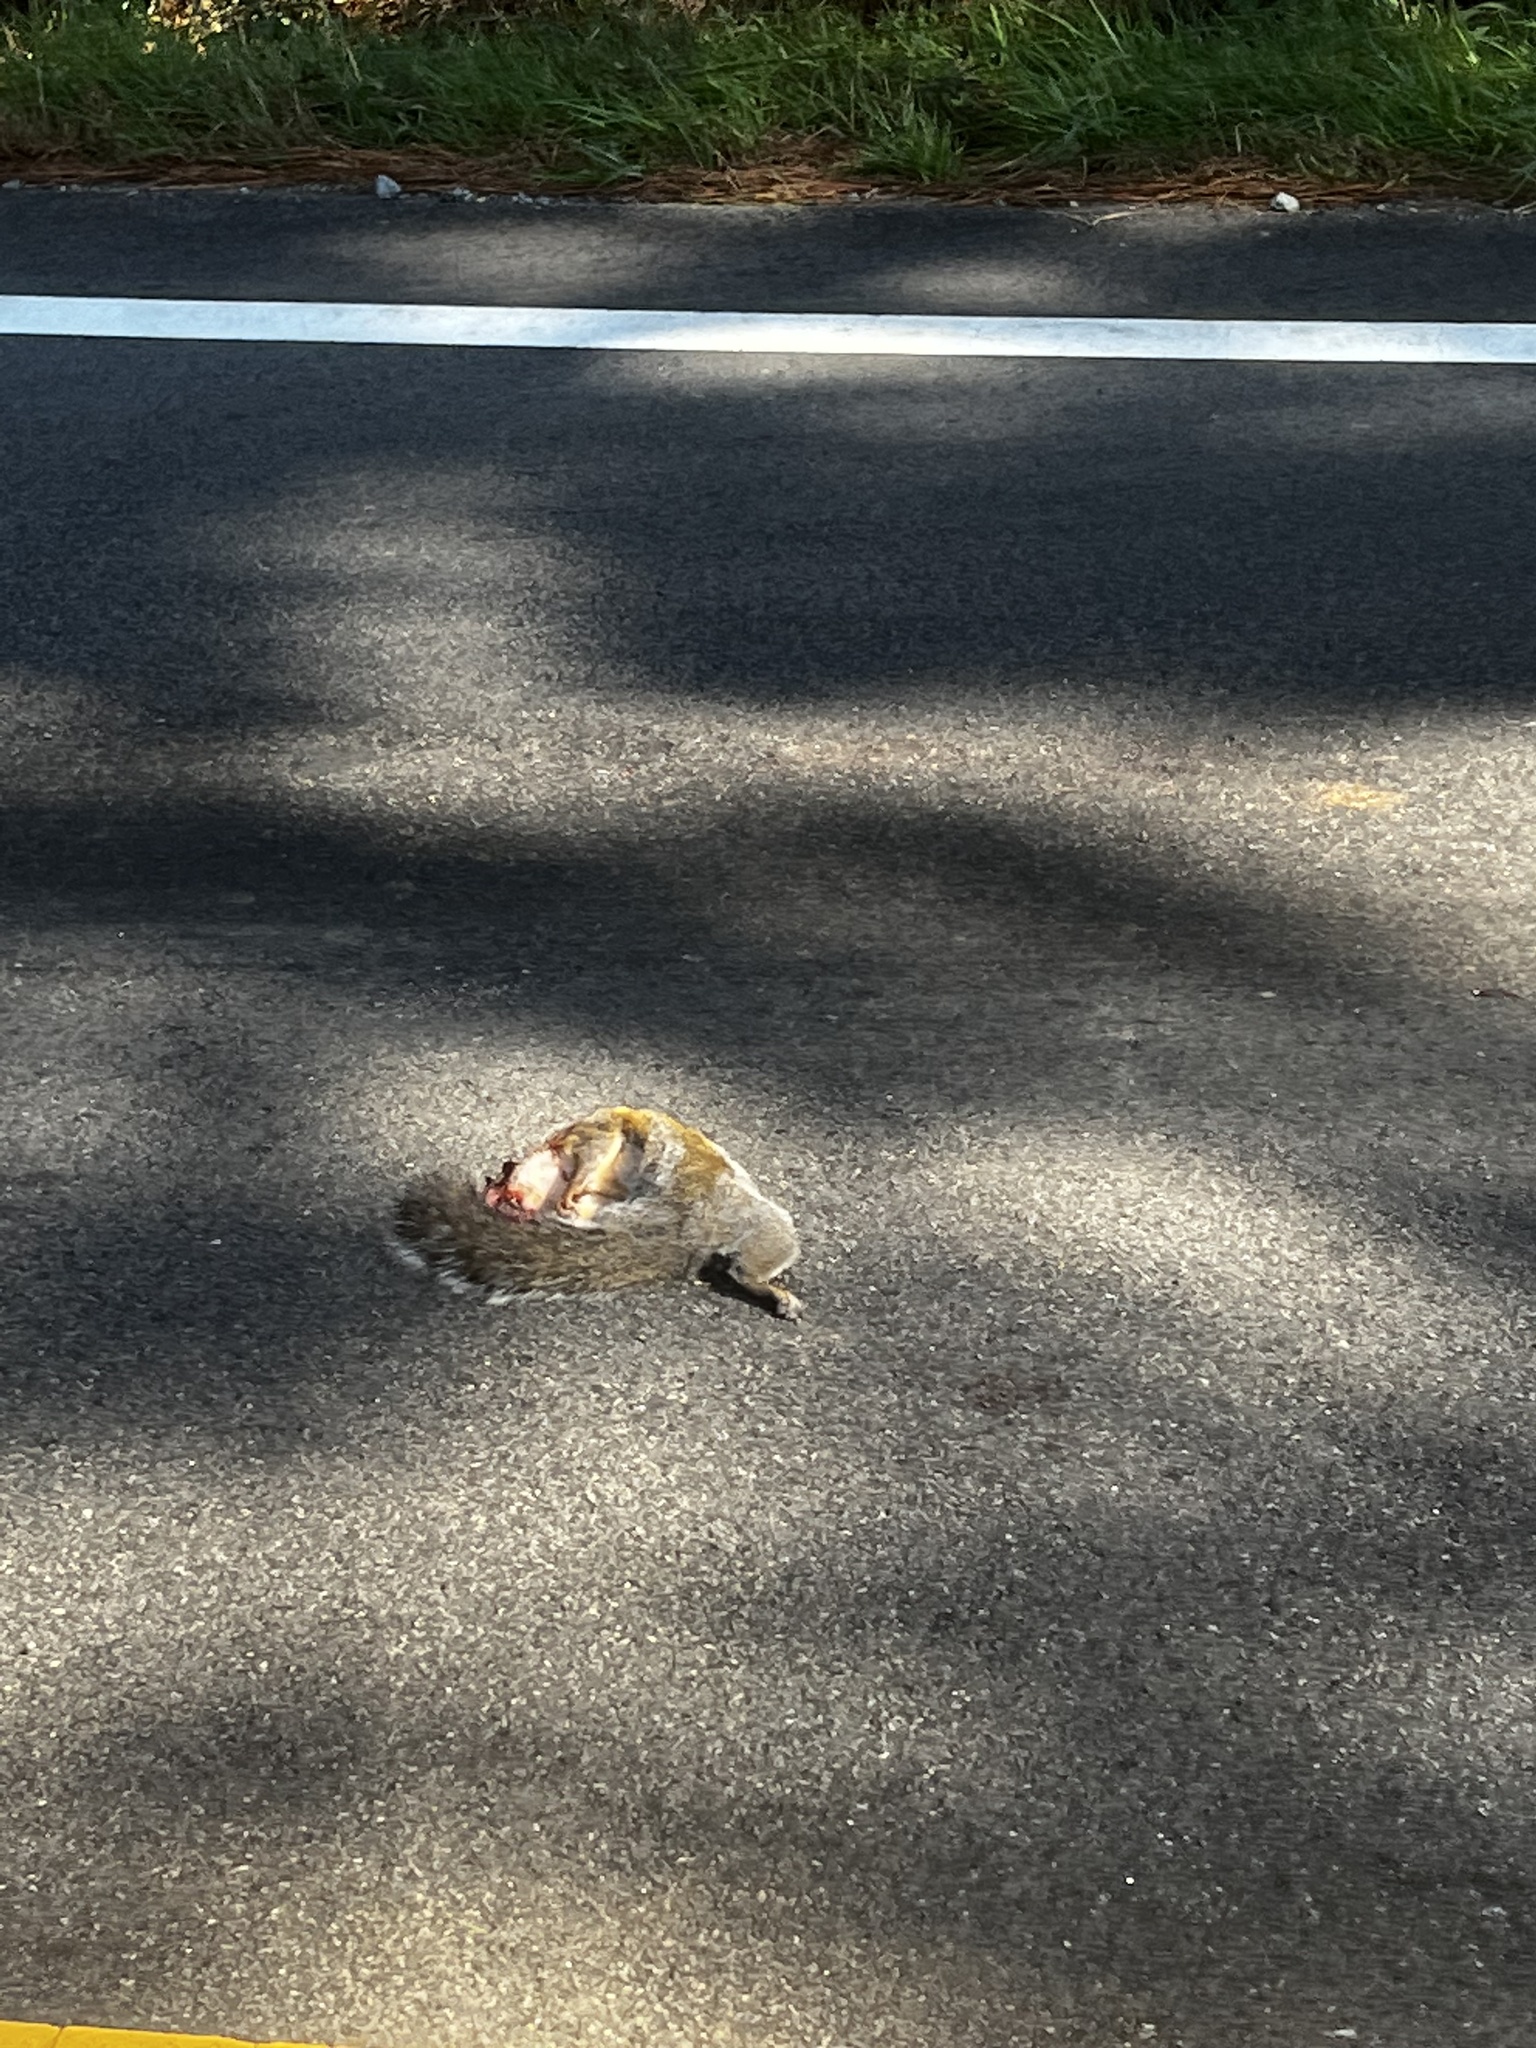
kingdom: Animalia
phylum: Chordata
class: Mammalia
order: Rodentia
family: Sciuridae
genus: Sciurus
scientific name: Sciurus carolinensis
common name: Eastern gray squirrel
